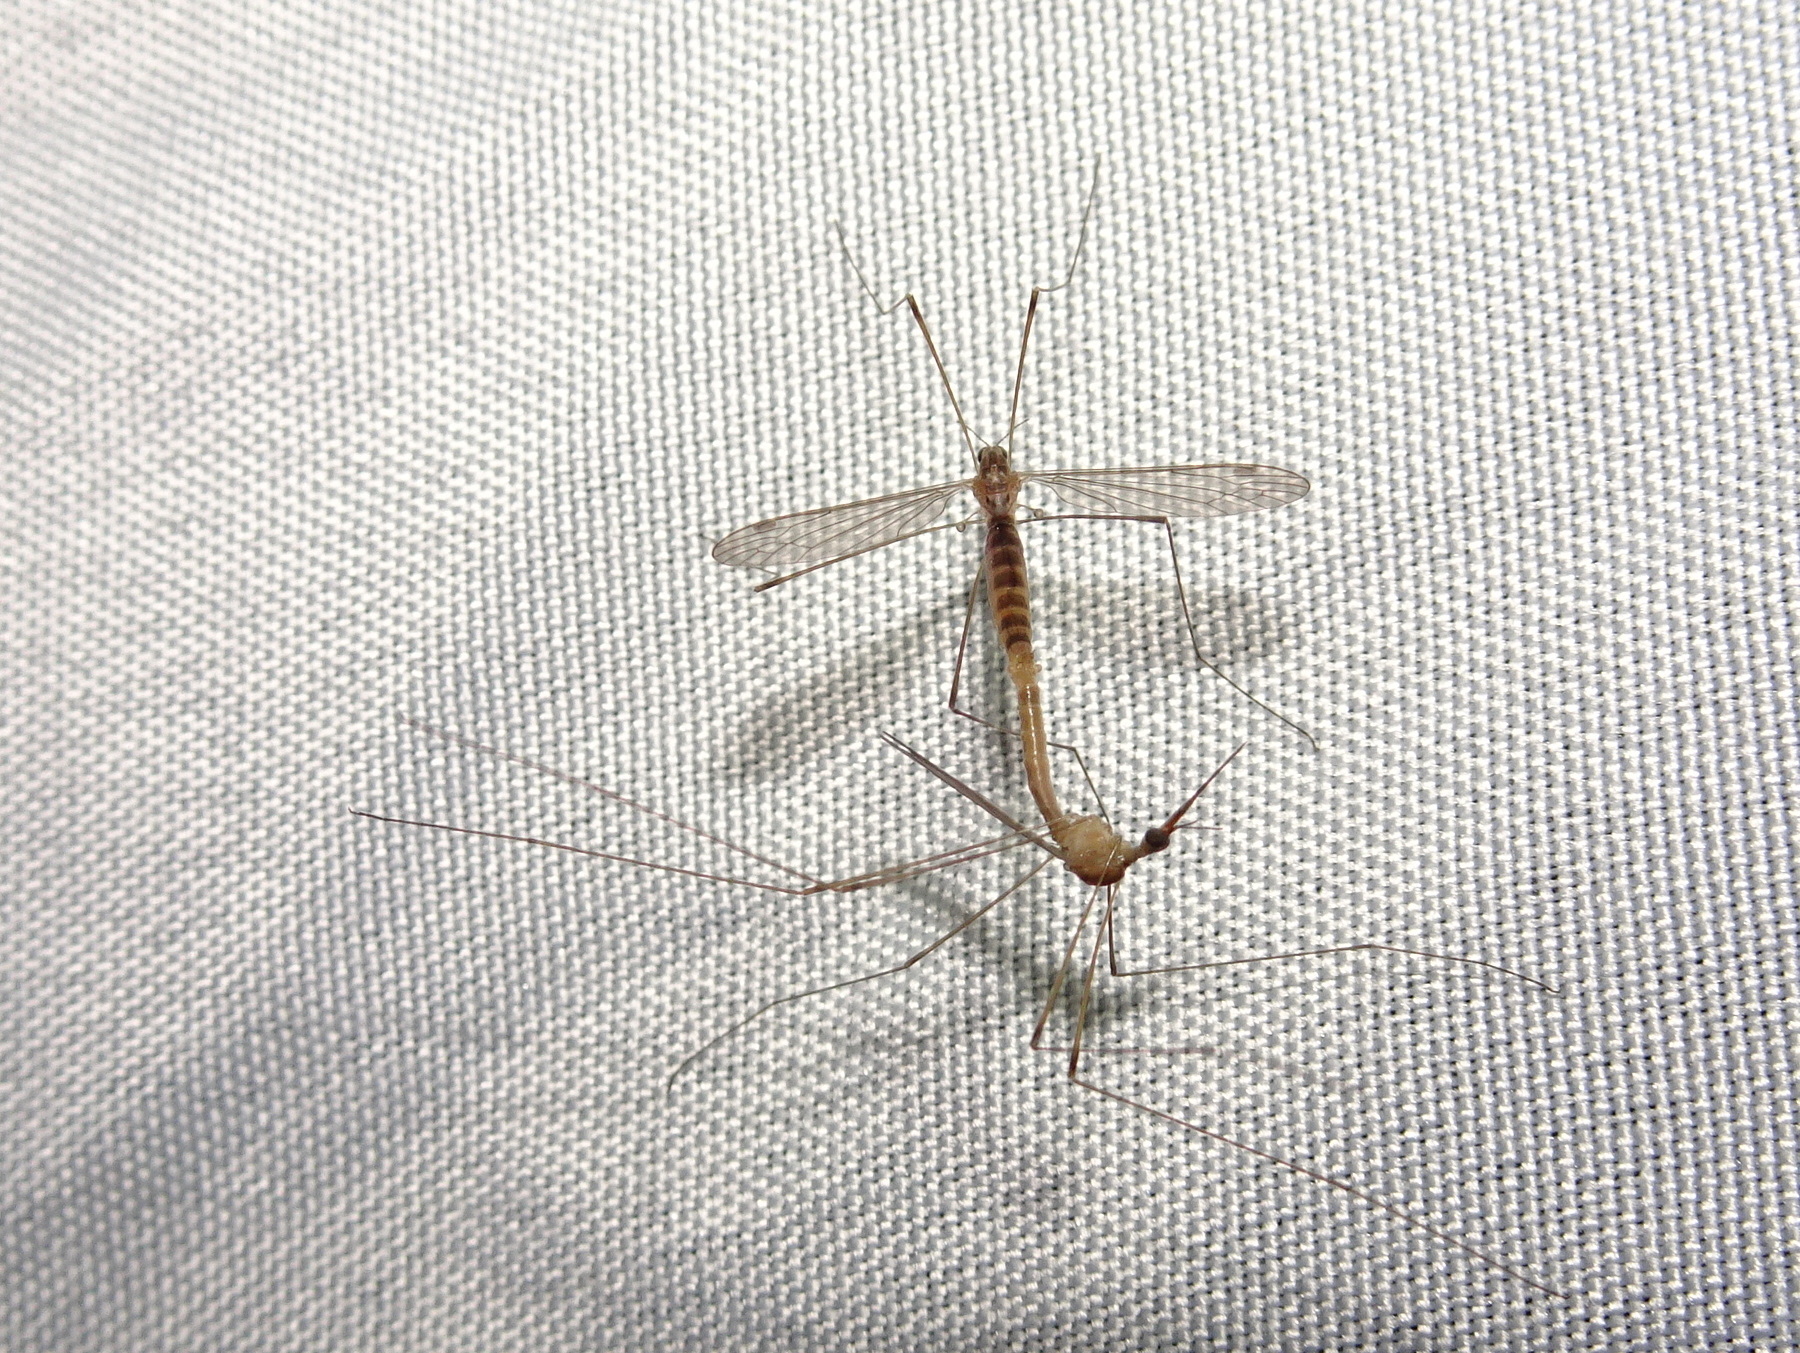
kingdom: Animalia
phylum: Arthropoda
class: Insecta
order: Diptera
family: Tipulidae
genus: Nephrotoma
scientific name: Nephrotoma ferruginea
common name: Ferruginous tiger crane fly
